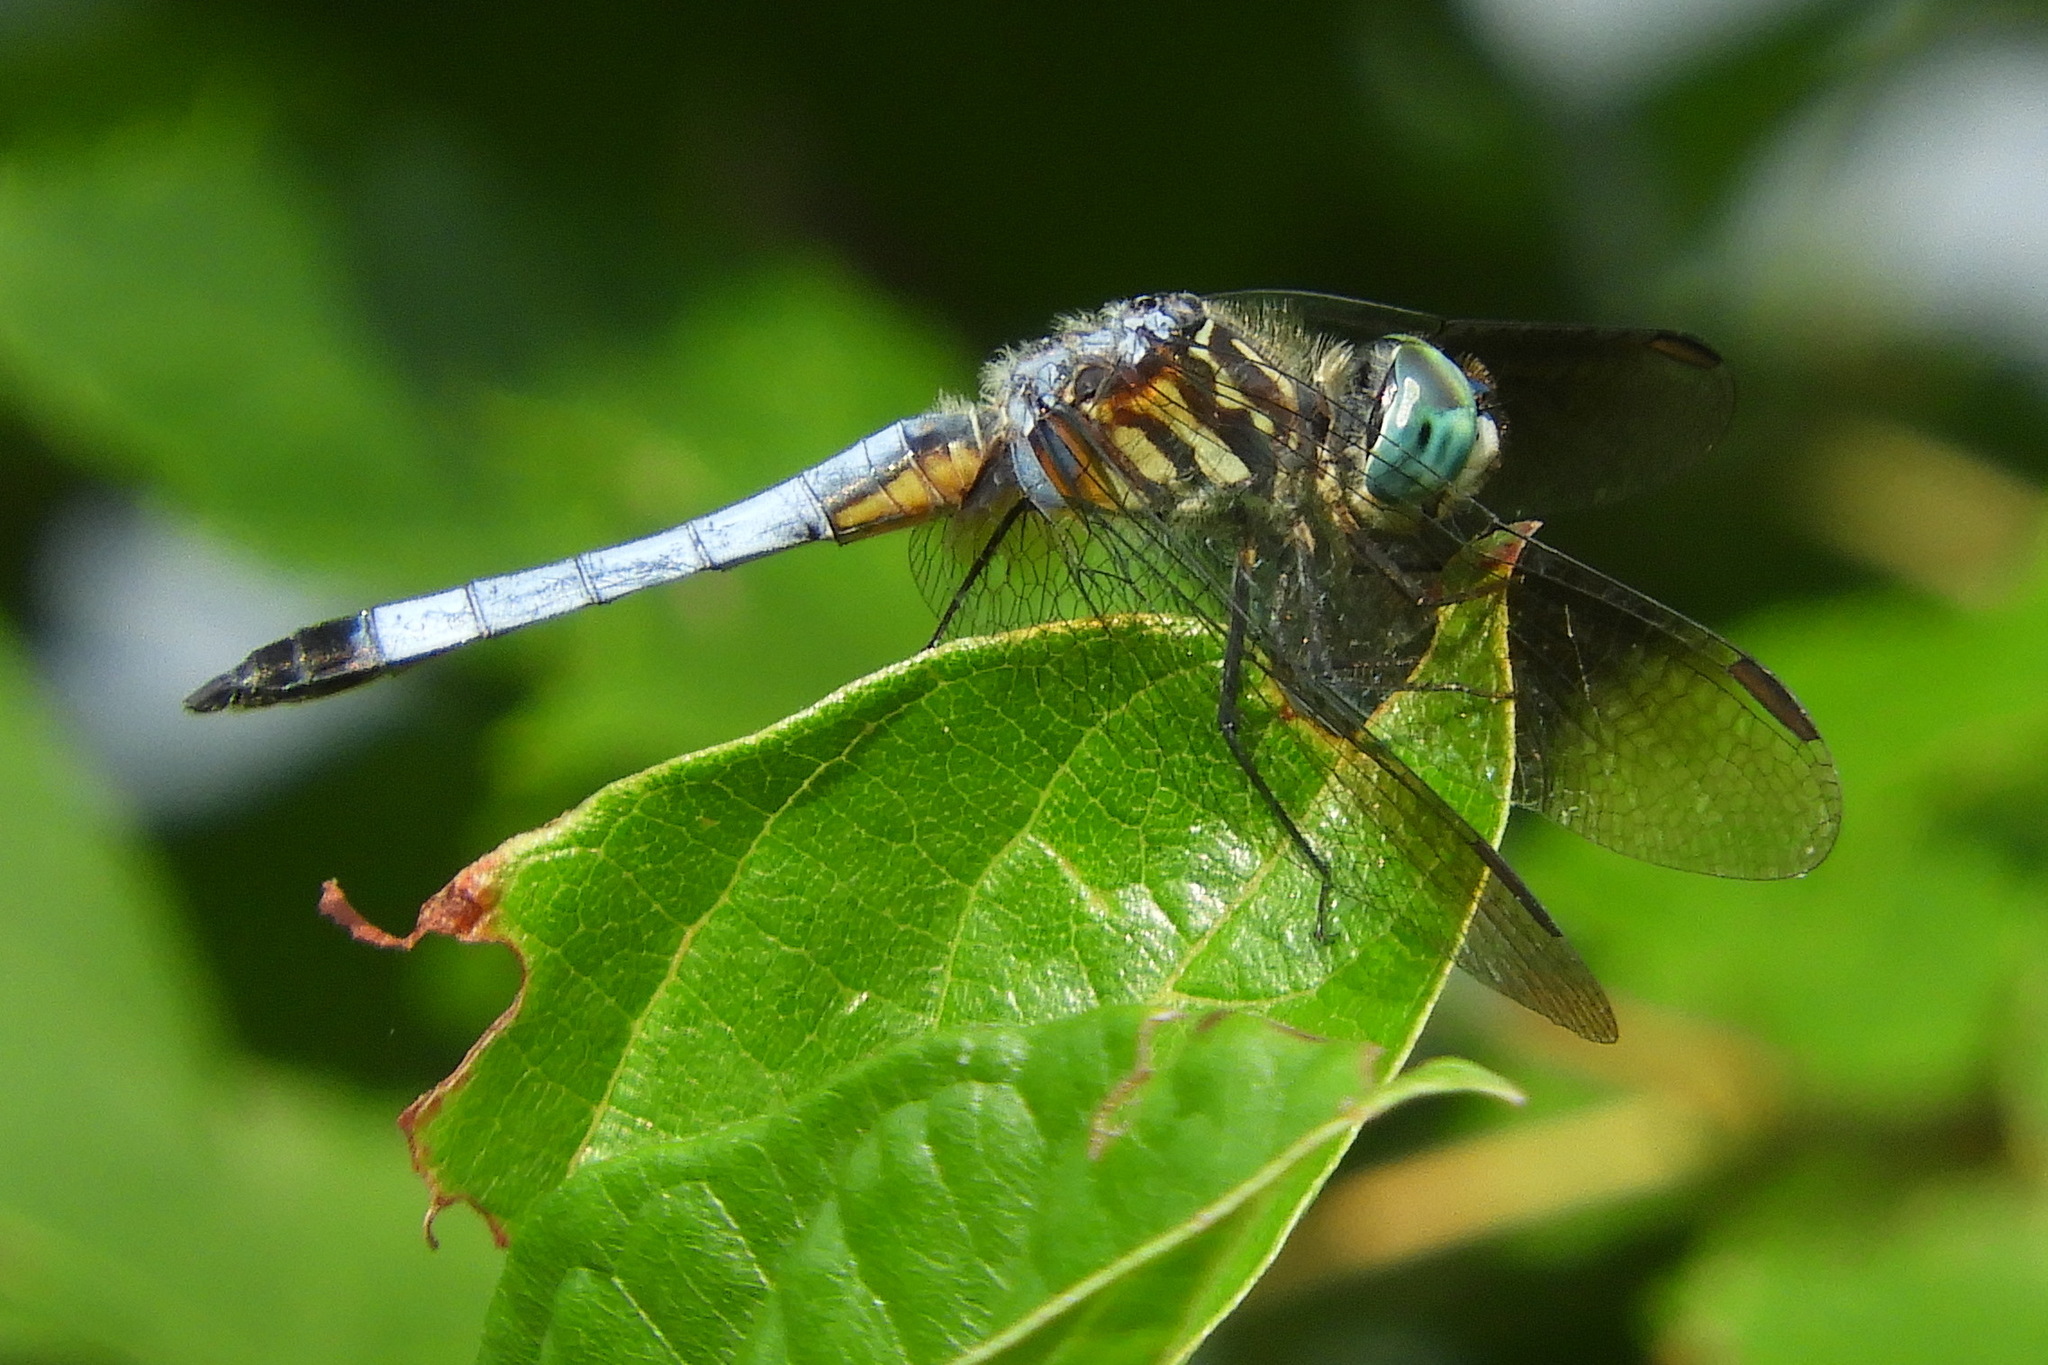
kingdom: Animalia
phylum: Arthropoda
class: Insecta
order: Odonata
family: Libellulidae
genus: Pachydiplax
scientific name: Pachydiplax longipennis
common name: Blue dasher
